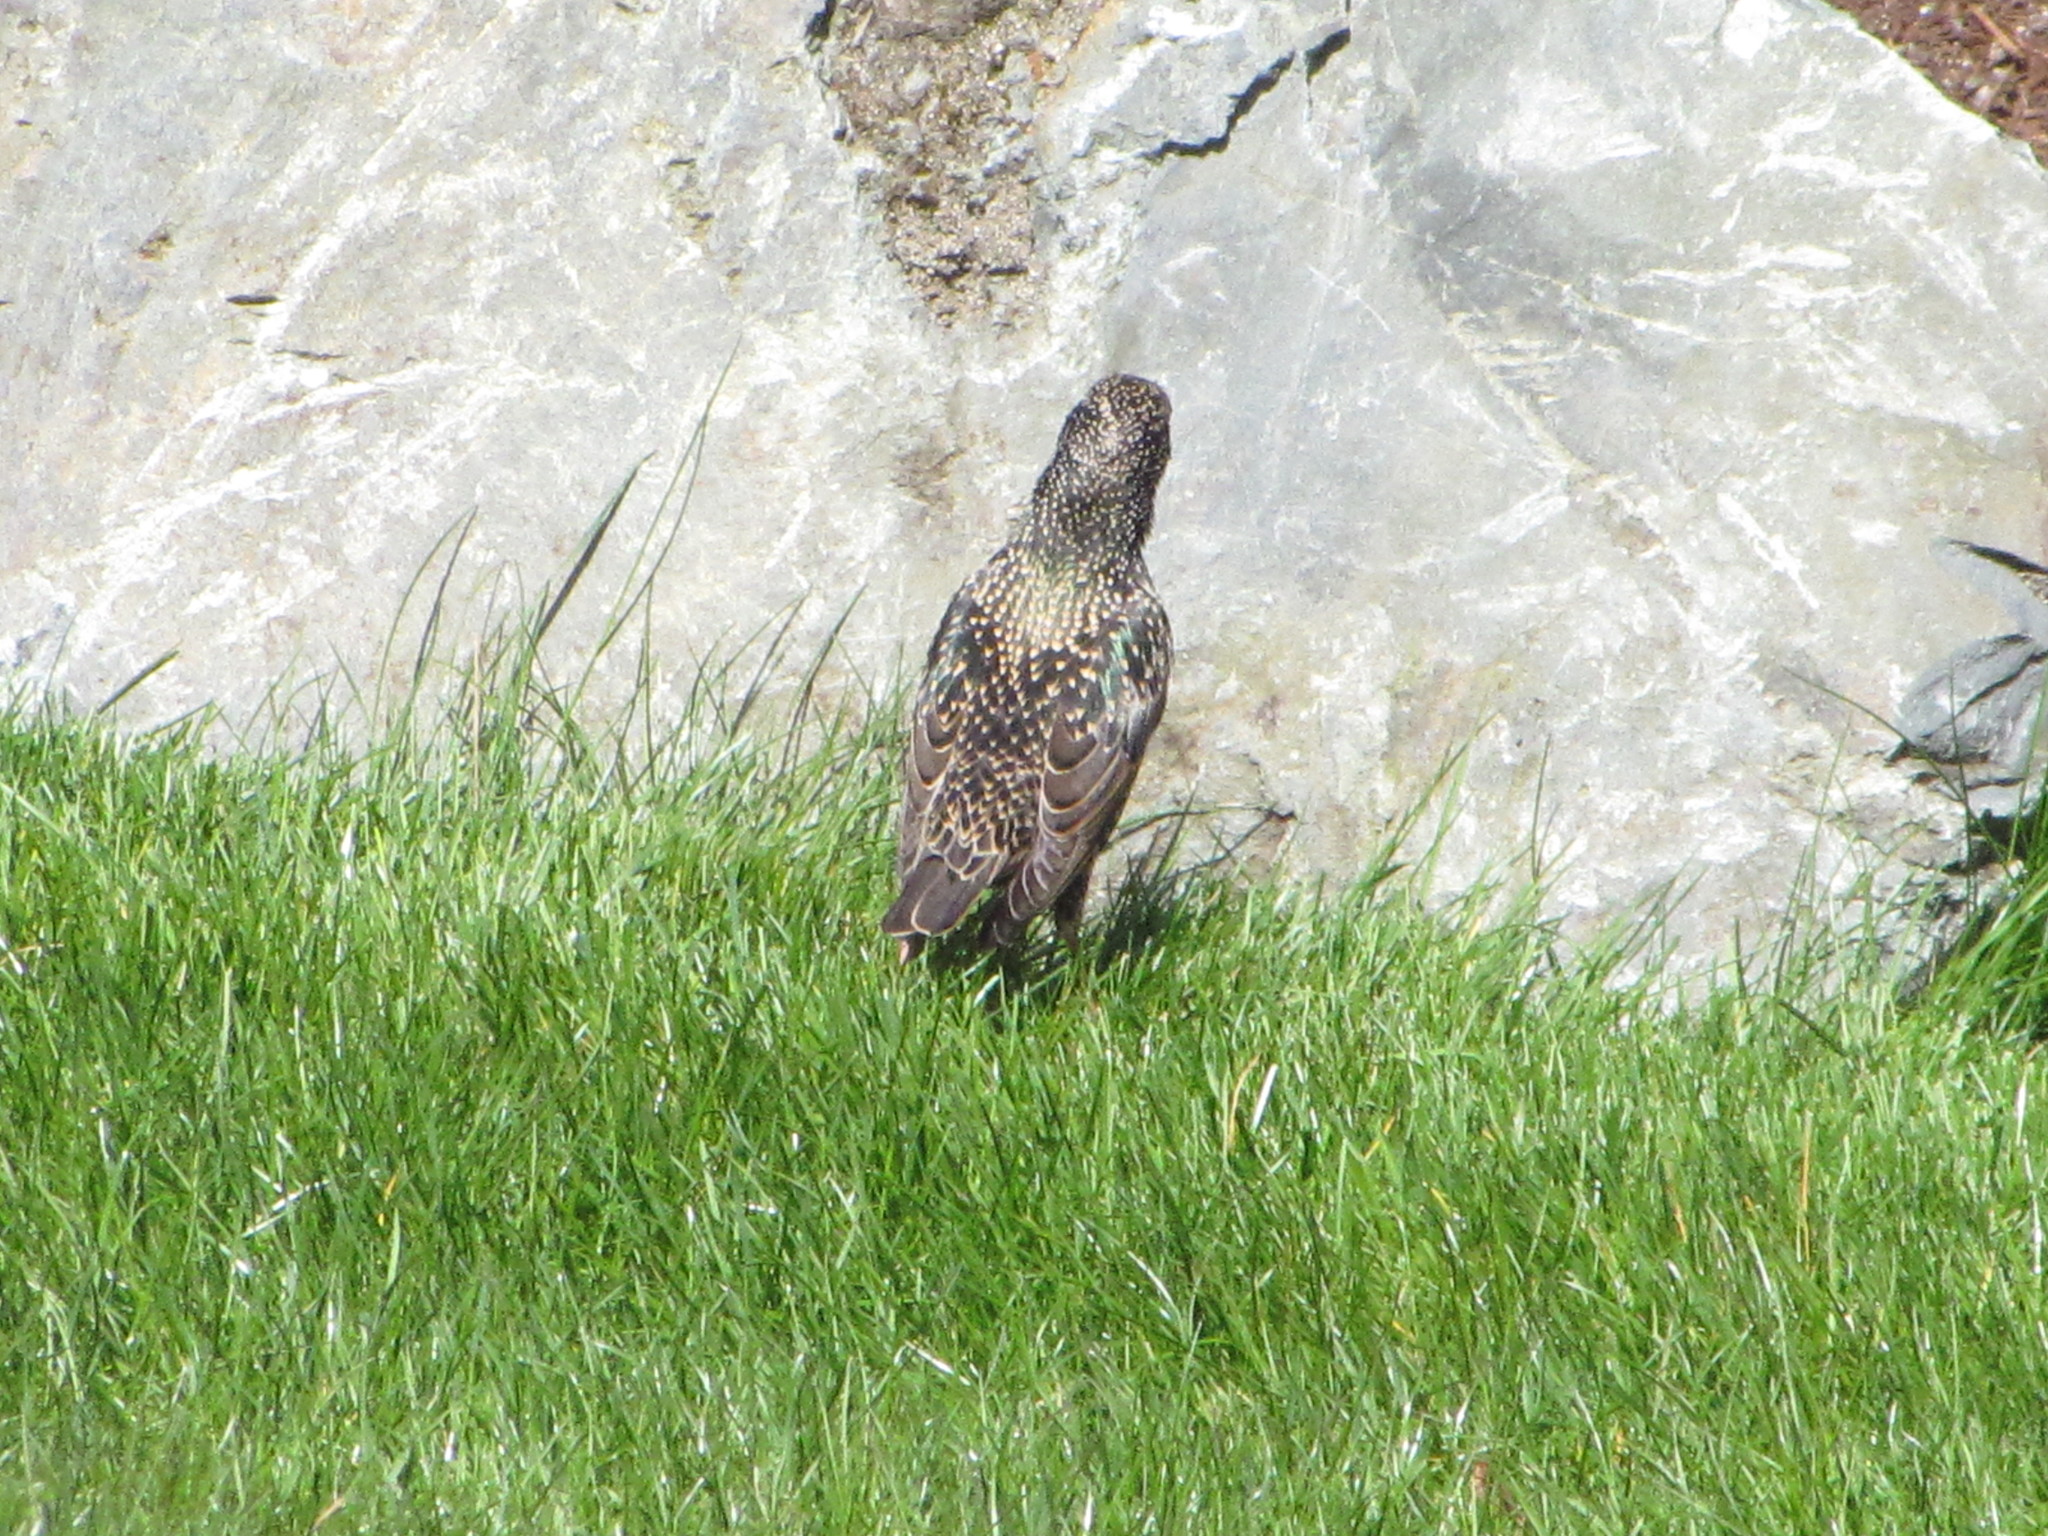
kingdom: Animalia
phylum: Chordata
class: Aves
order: Passeriformes
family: Sturnidae
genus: Sturnus
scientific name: Sturnus vulgaris
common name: Common starling
